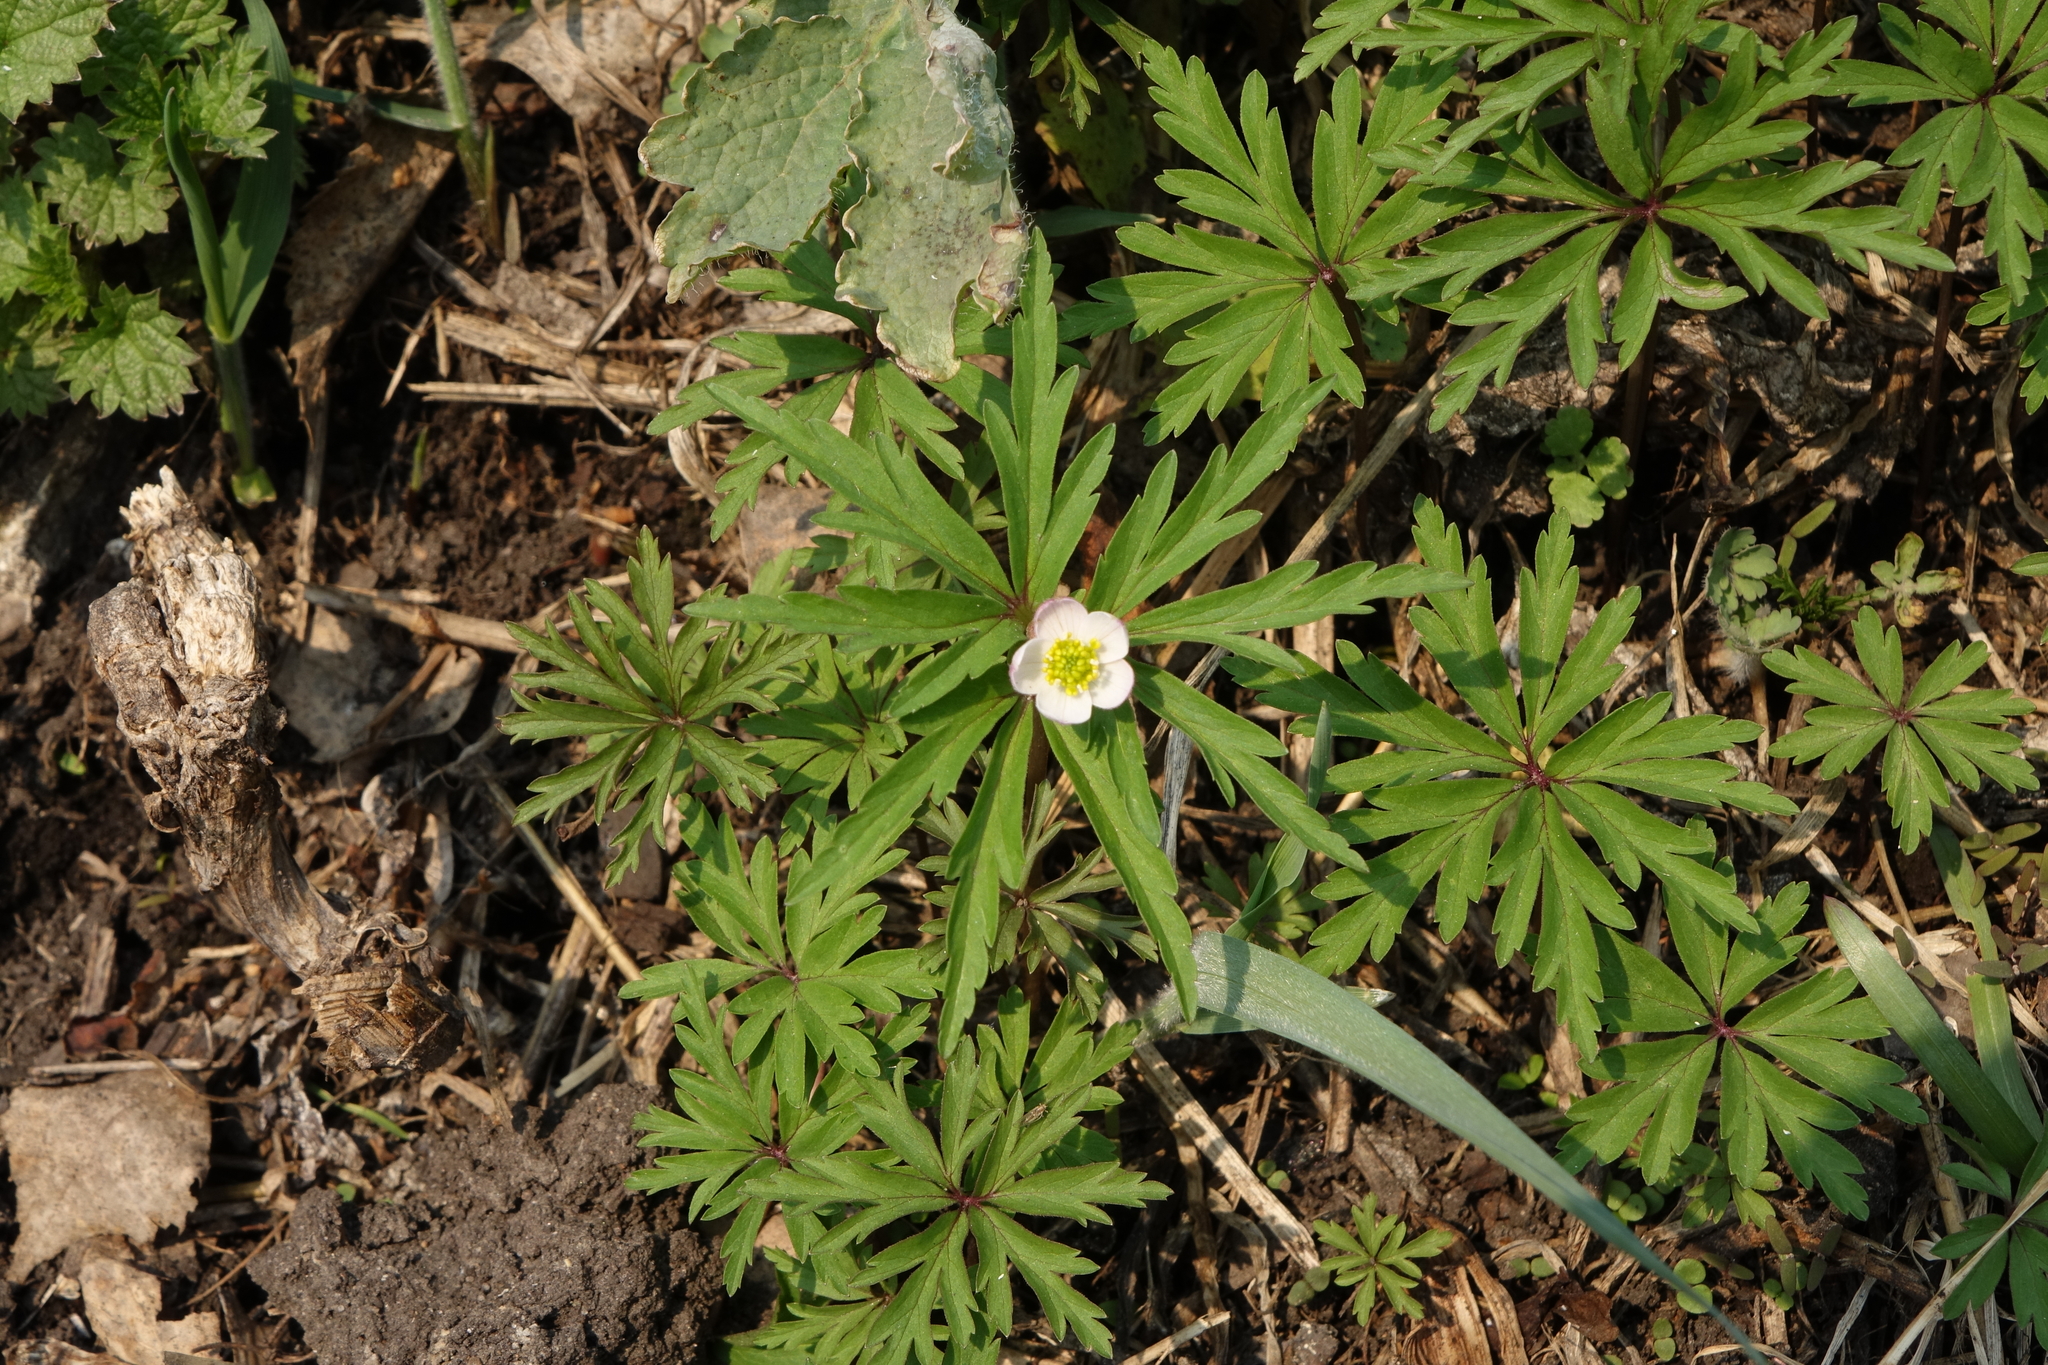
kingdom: Plantae
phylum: Tracheophyta
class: Magnoliopsida
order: Ranunculales
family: Ranunculaceae
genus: Anemone
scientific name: Anemone caerulea
